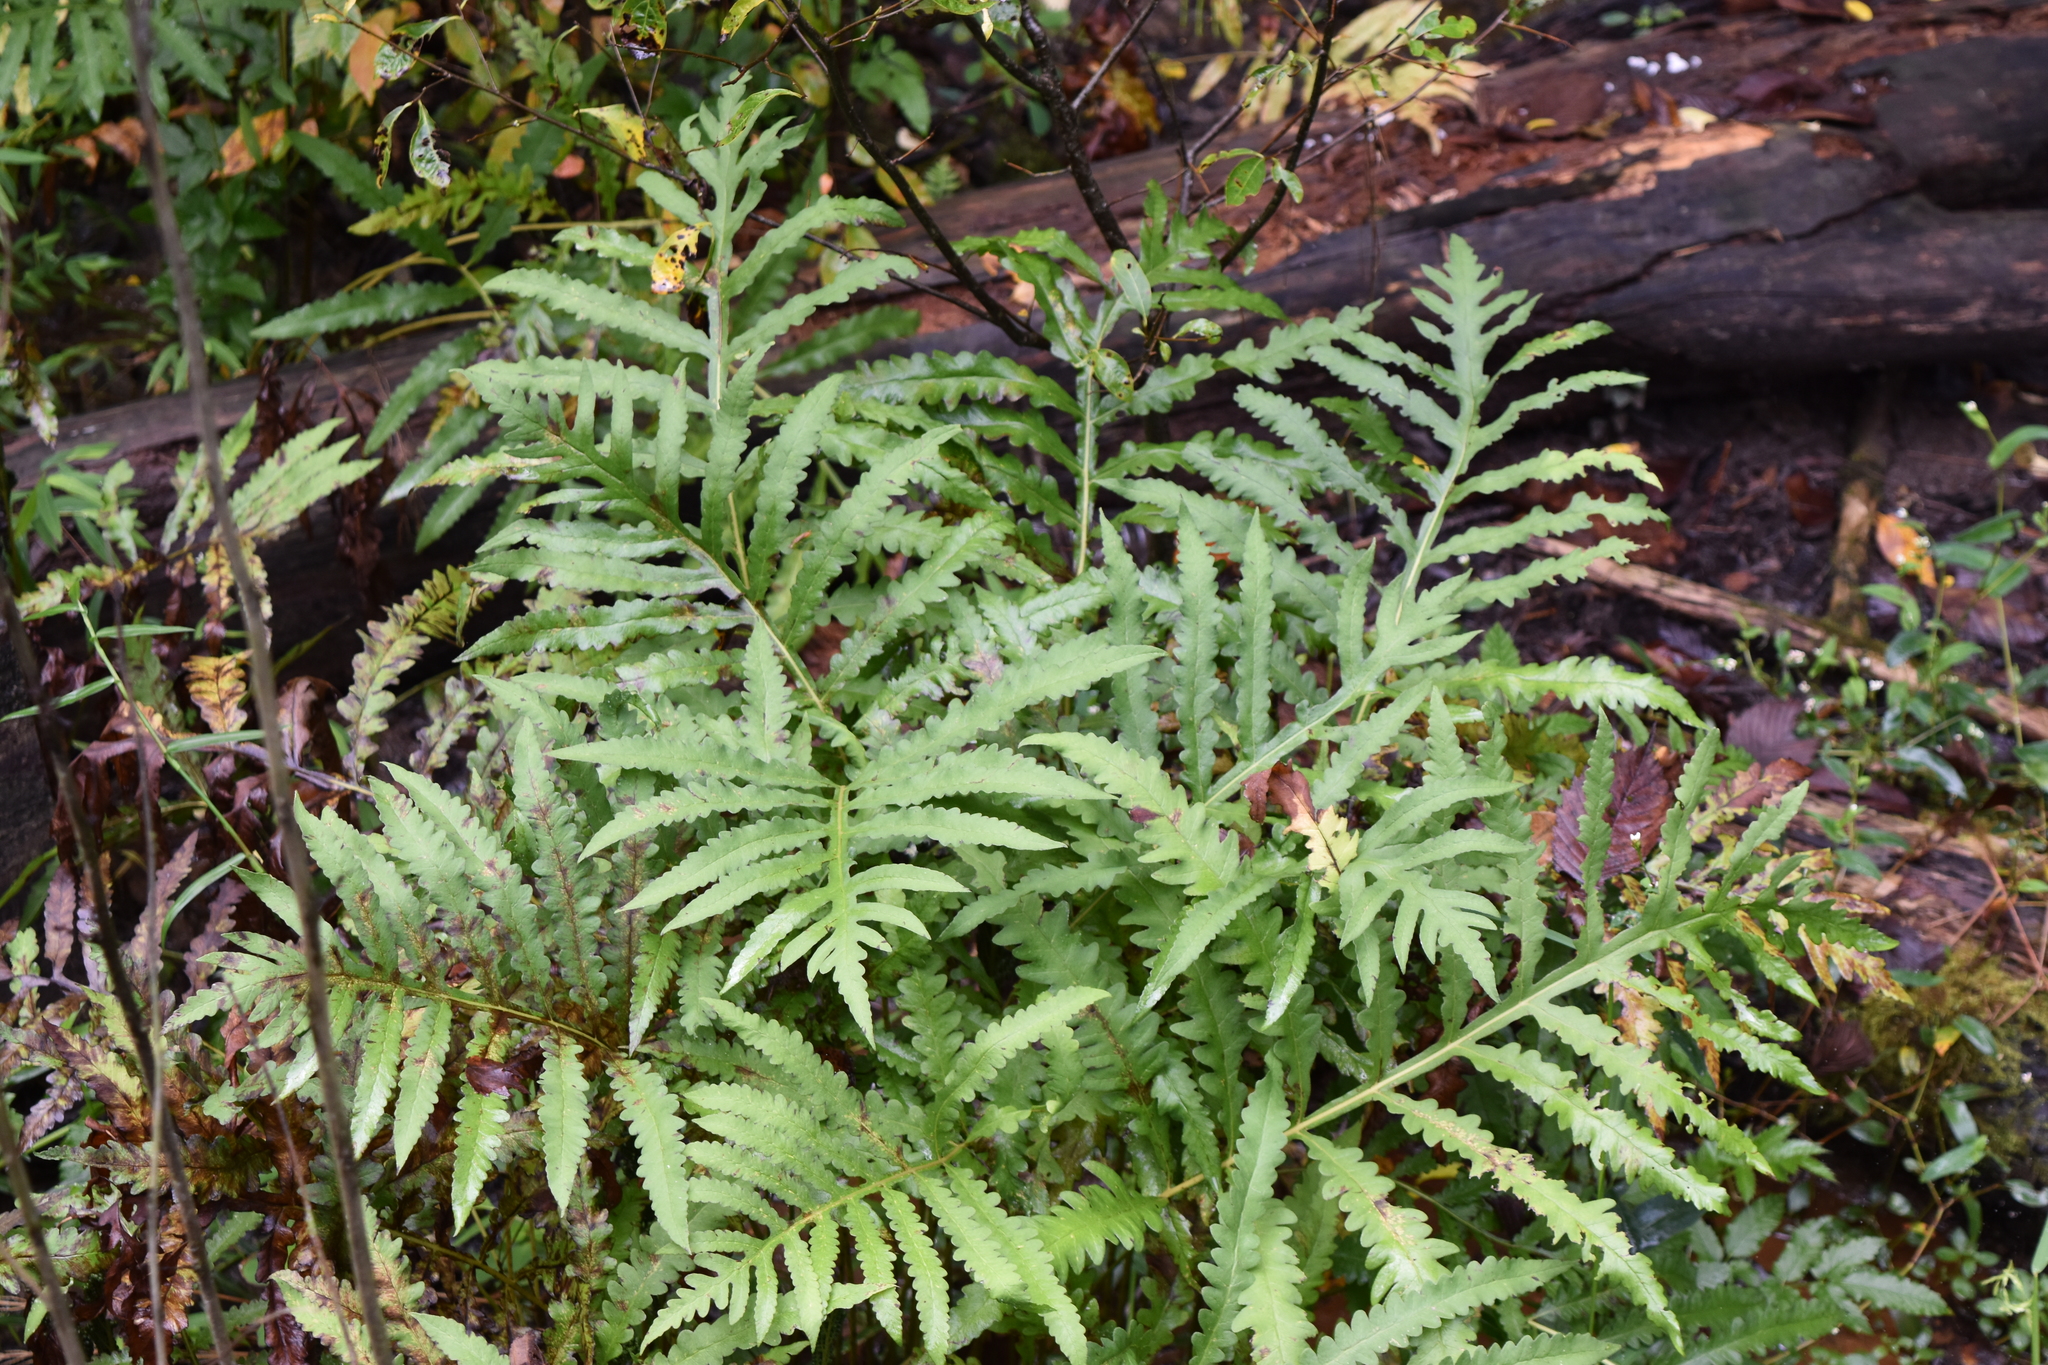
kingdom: Plantae
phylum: Tracheophyta
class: Polypodiopsida
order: Polypodiales
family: Onocleaceae
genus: Onoclea
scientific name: Onoclea sensibilis
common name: Sensitive fern
